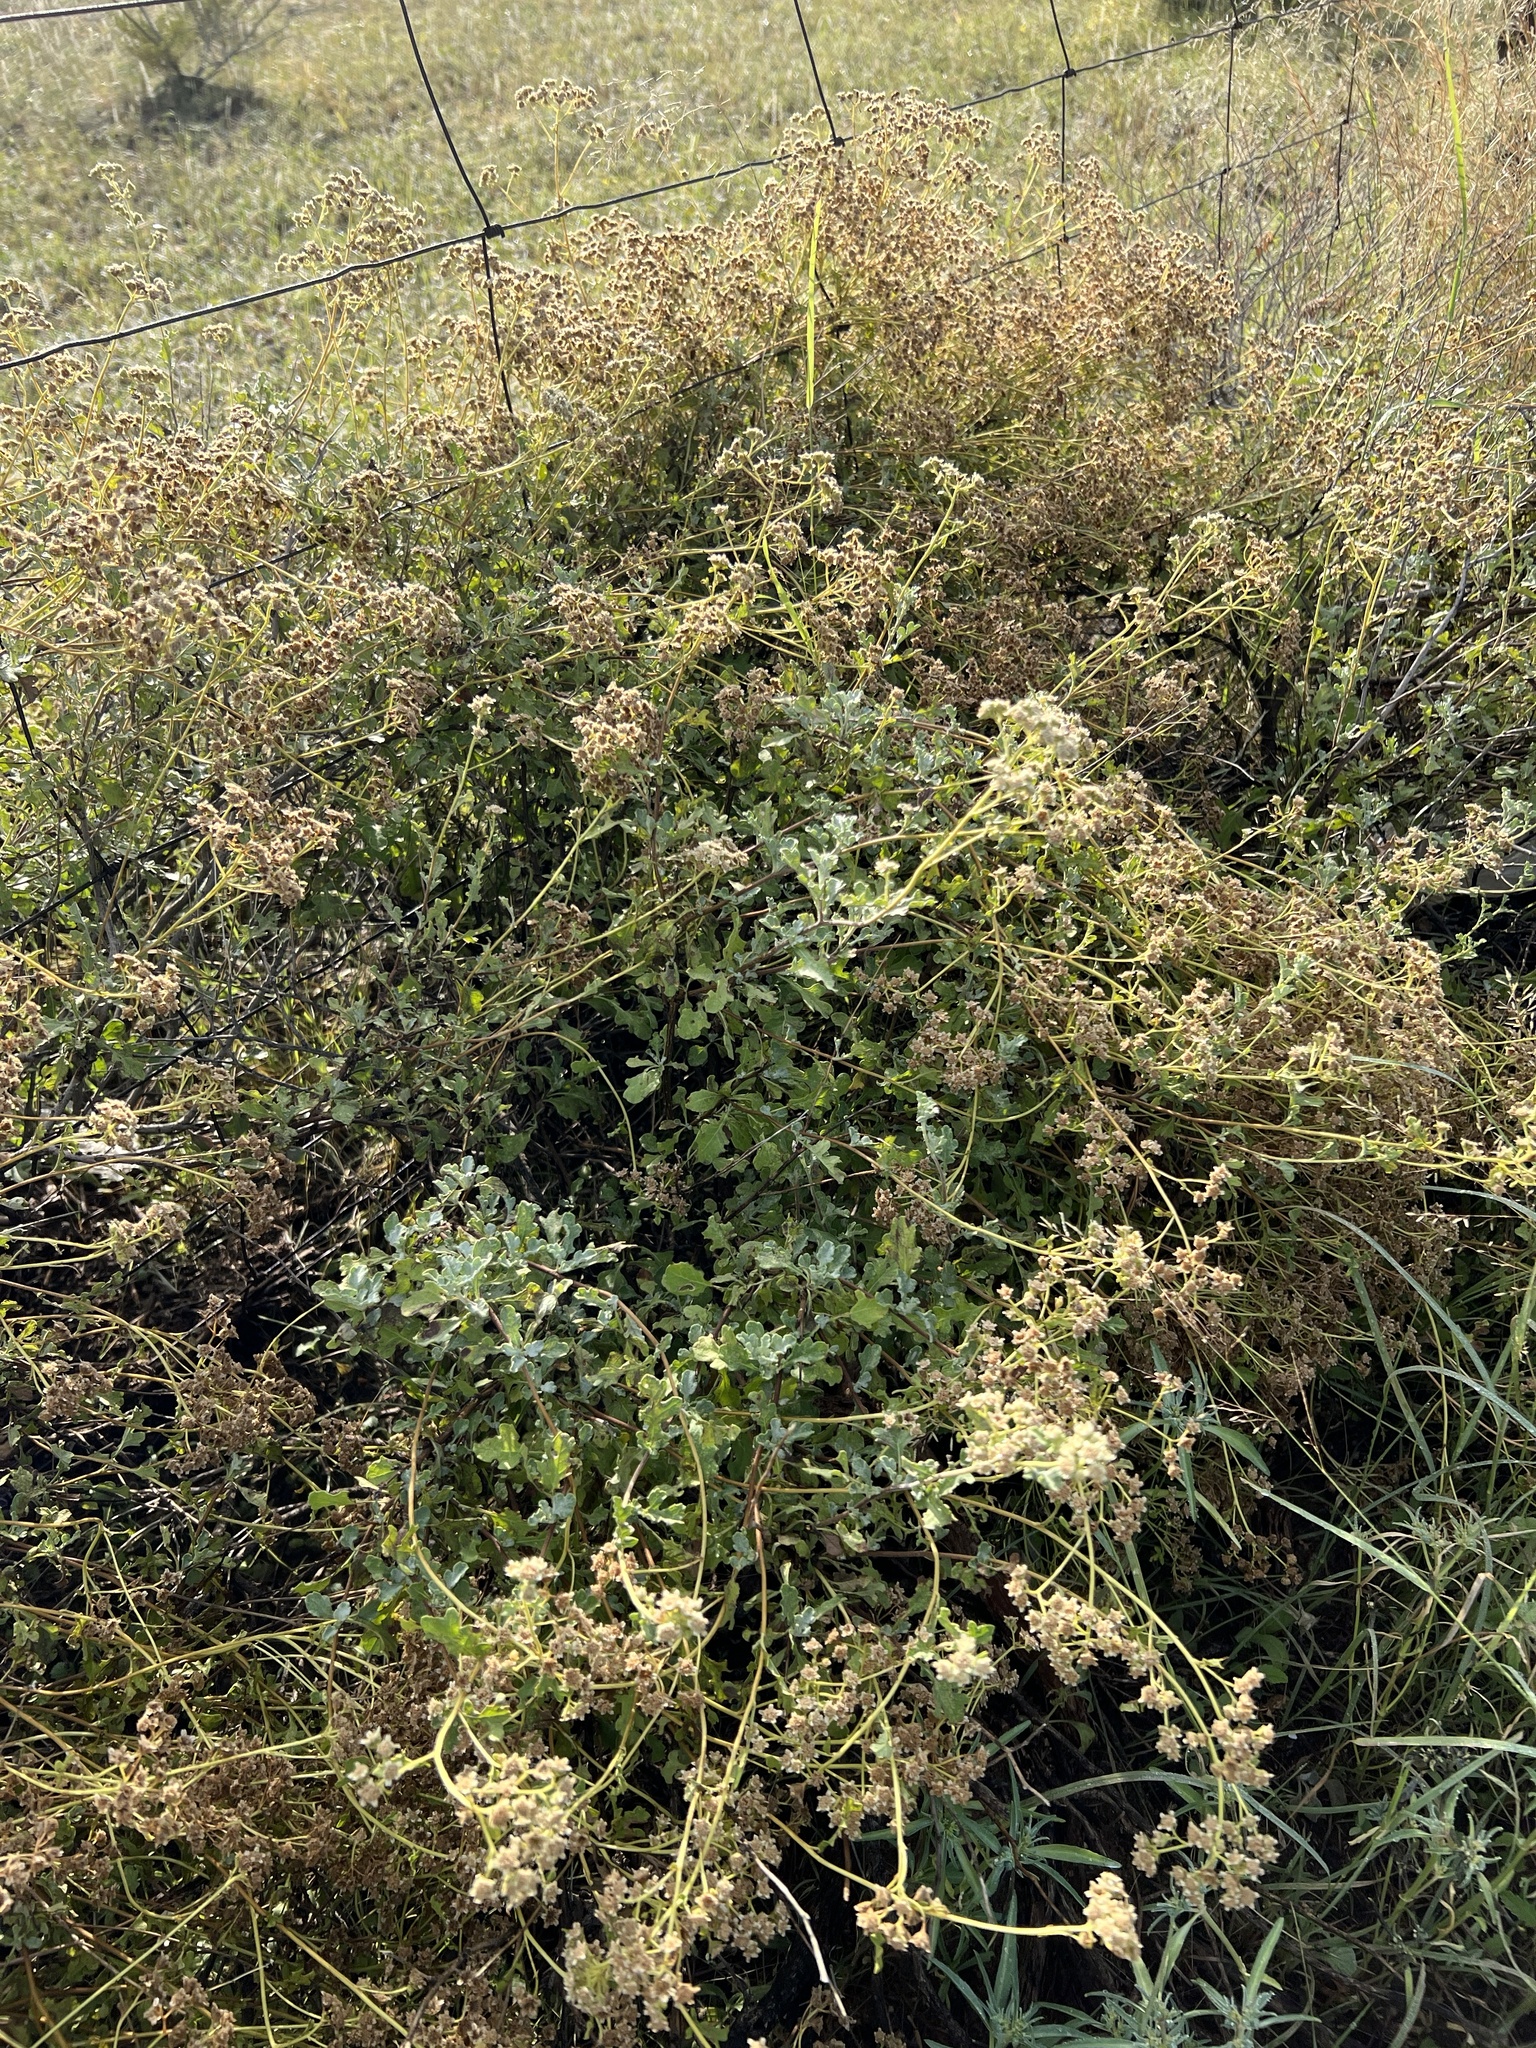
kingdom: Plantae
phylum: Tracheophyta
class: Magnoliopsida
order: Asterales
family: Asteraceae
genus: Parthenium
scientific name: Parthenium incanum
